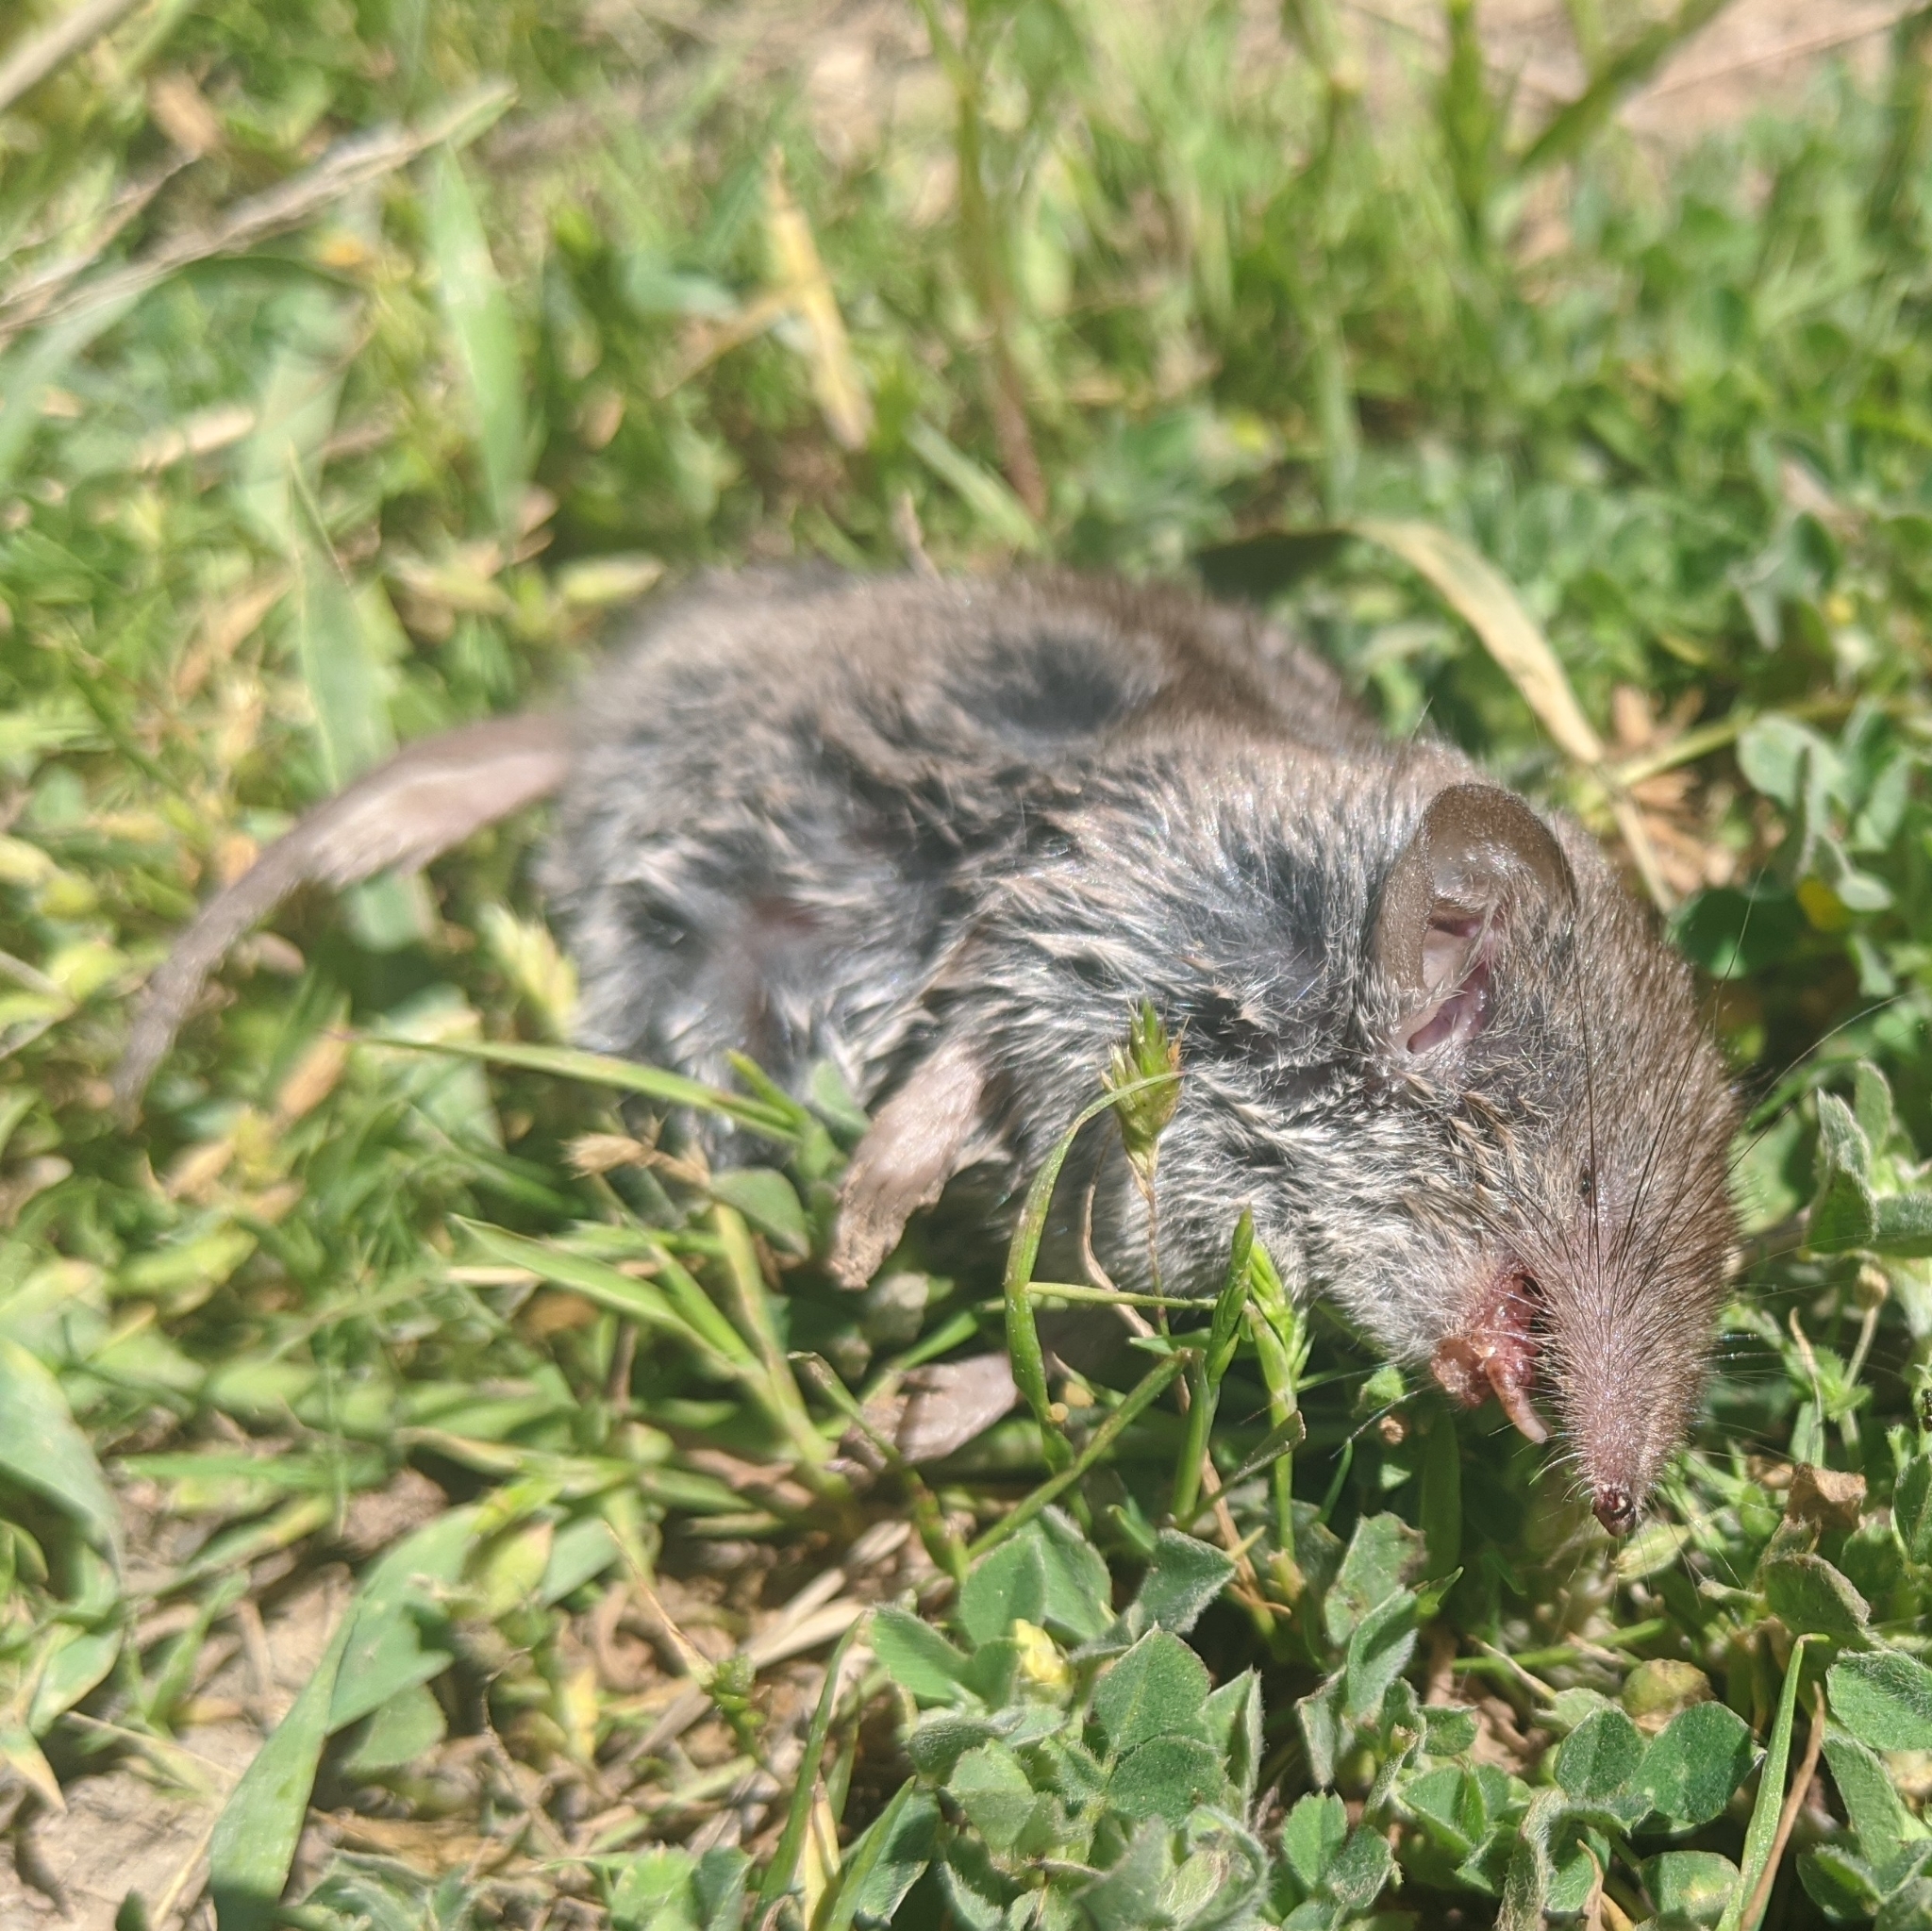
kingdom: Animalia
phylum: Chordata
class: Mammalia
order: Soricomorpha
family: Soricidae
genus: Crocidura
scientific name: Crocidura suaveolens
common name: Lesser white-toothed shrew
